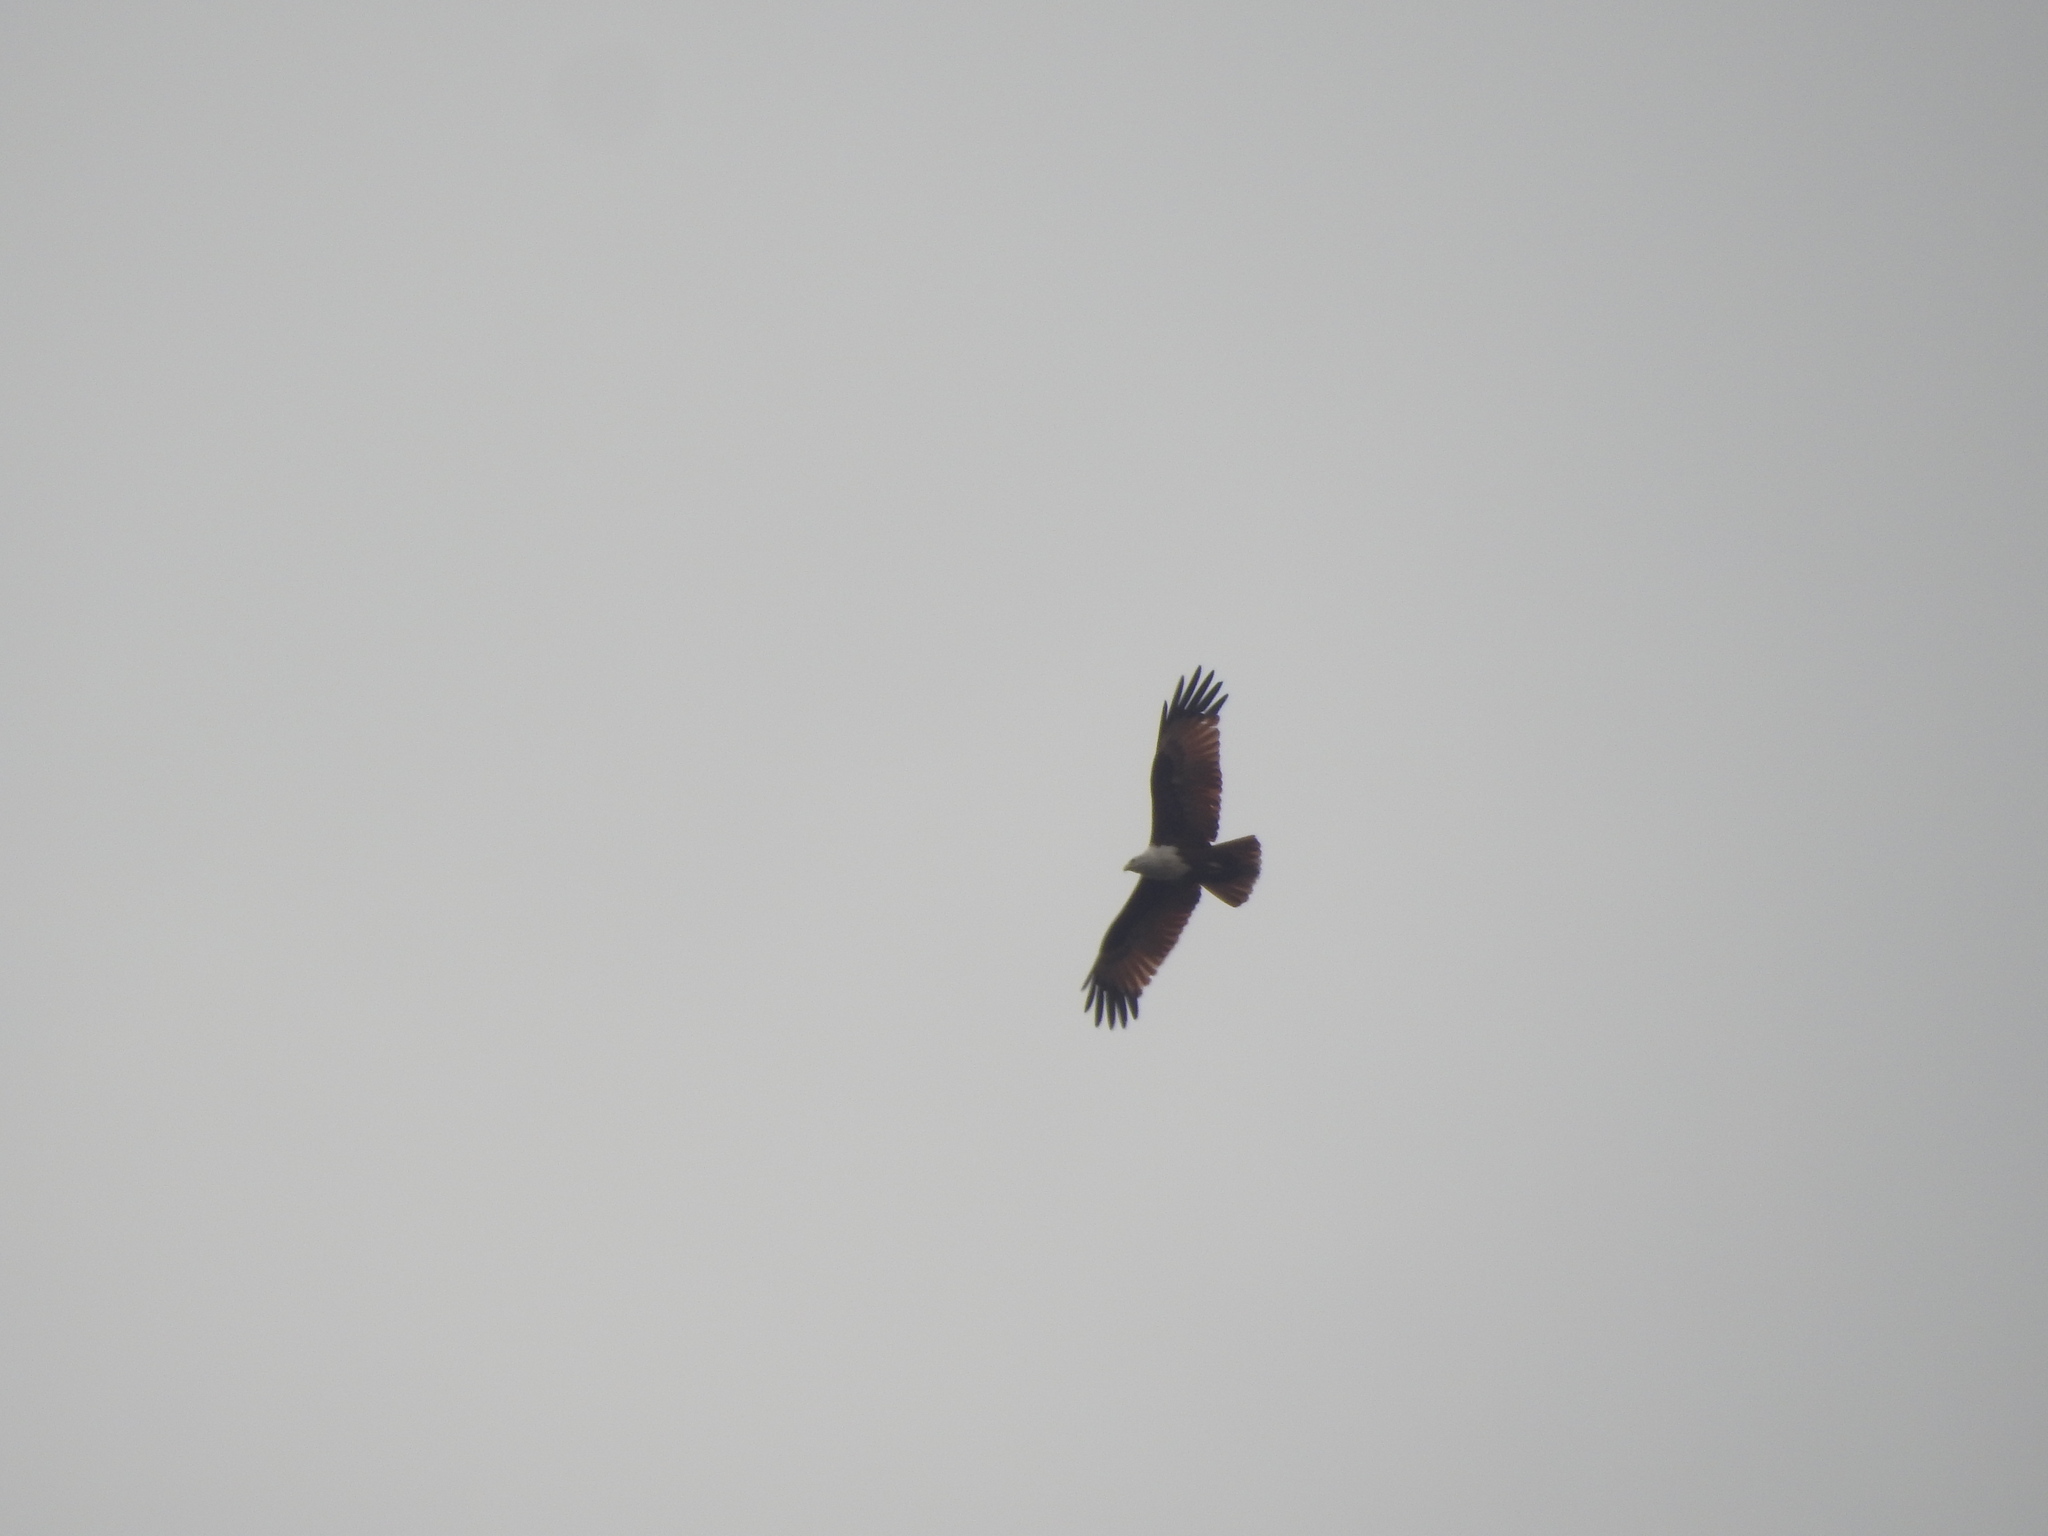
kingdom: Animalia
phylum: Chordata
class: Aves
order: Accipitriformes
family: Accipitridae
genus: Haliastur
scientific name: Haliastur indus
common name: Brahminy kite
